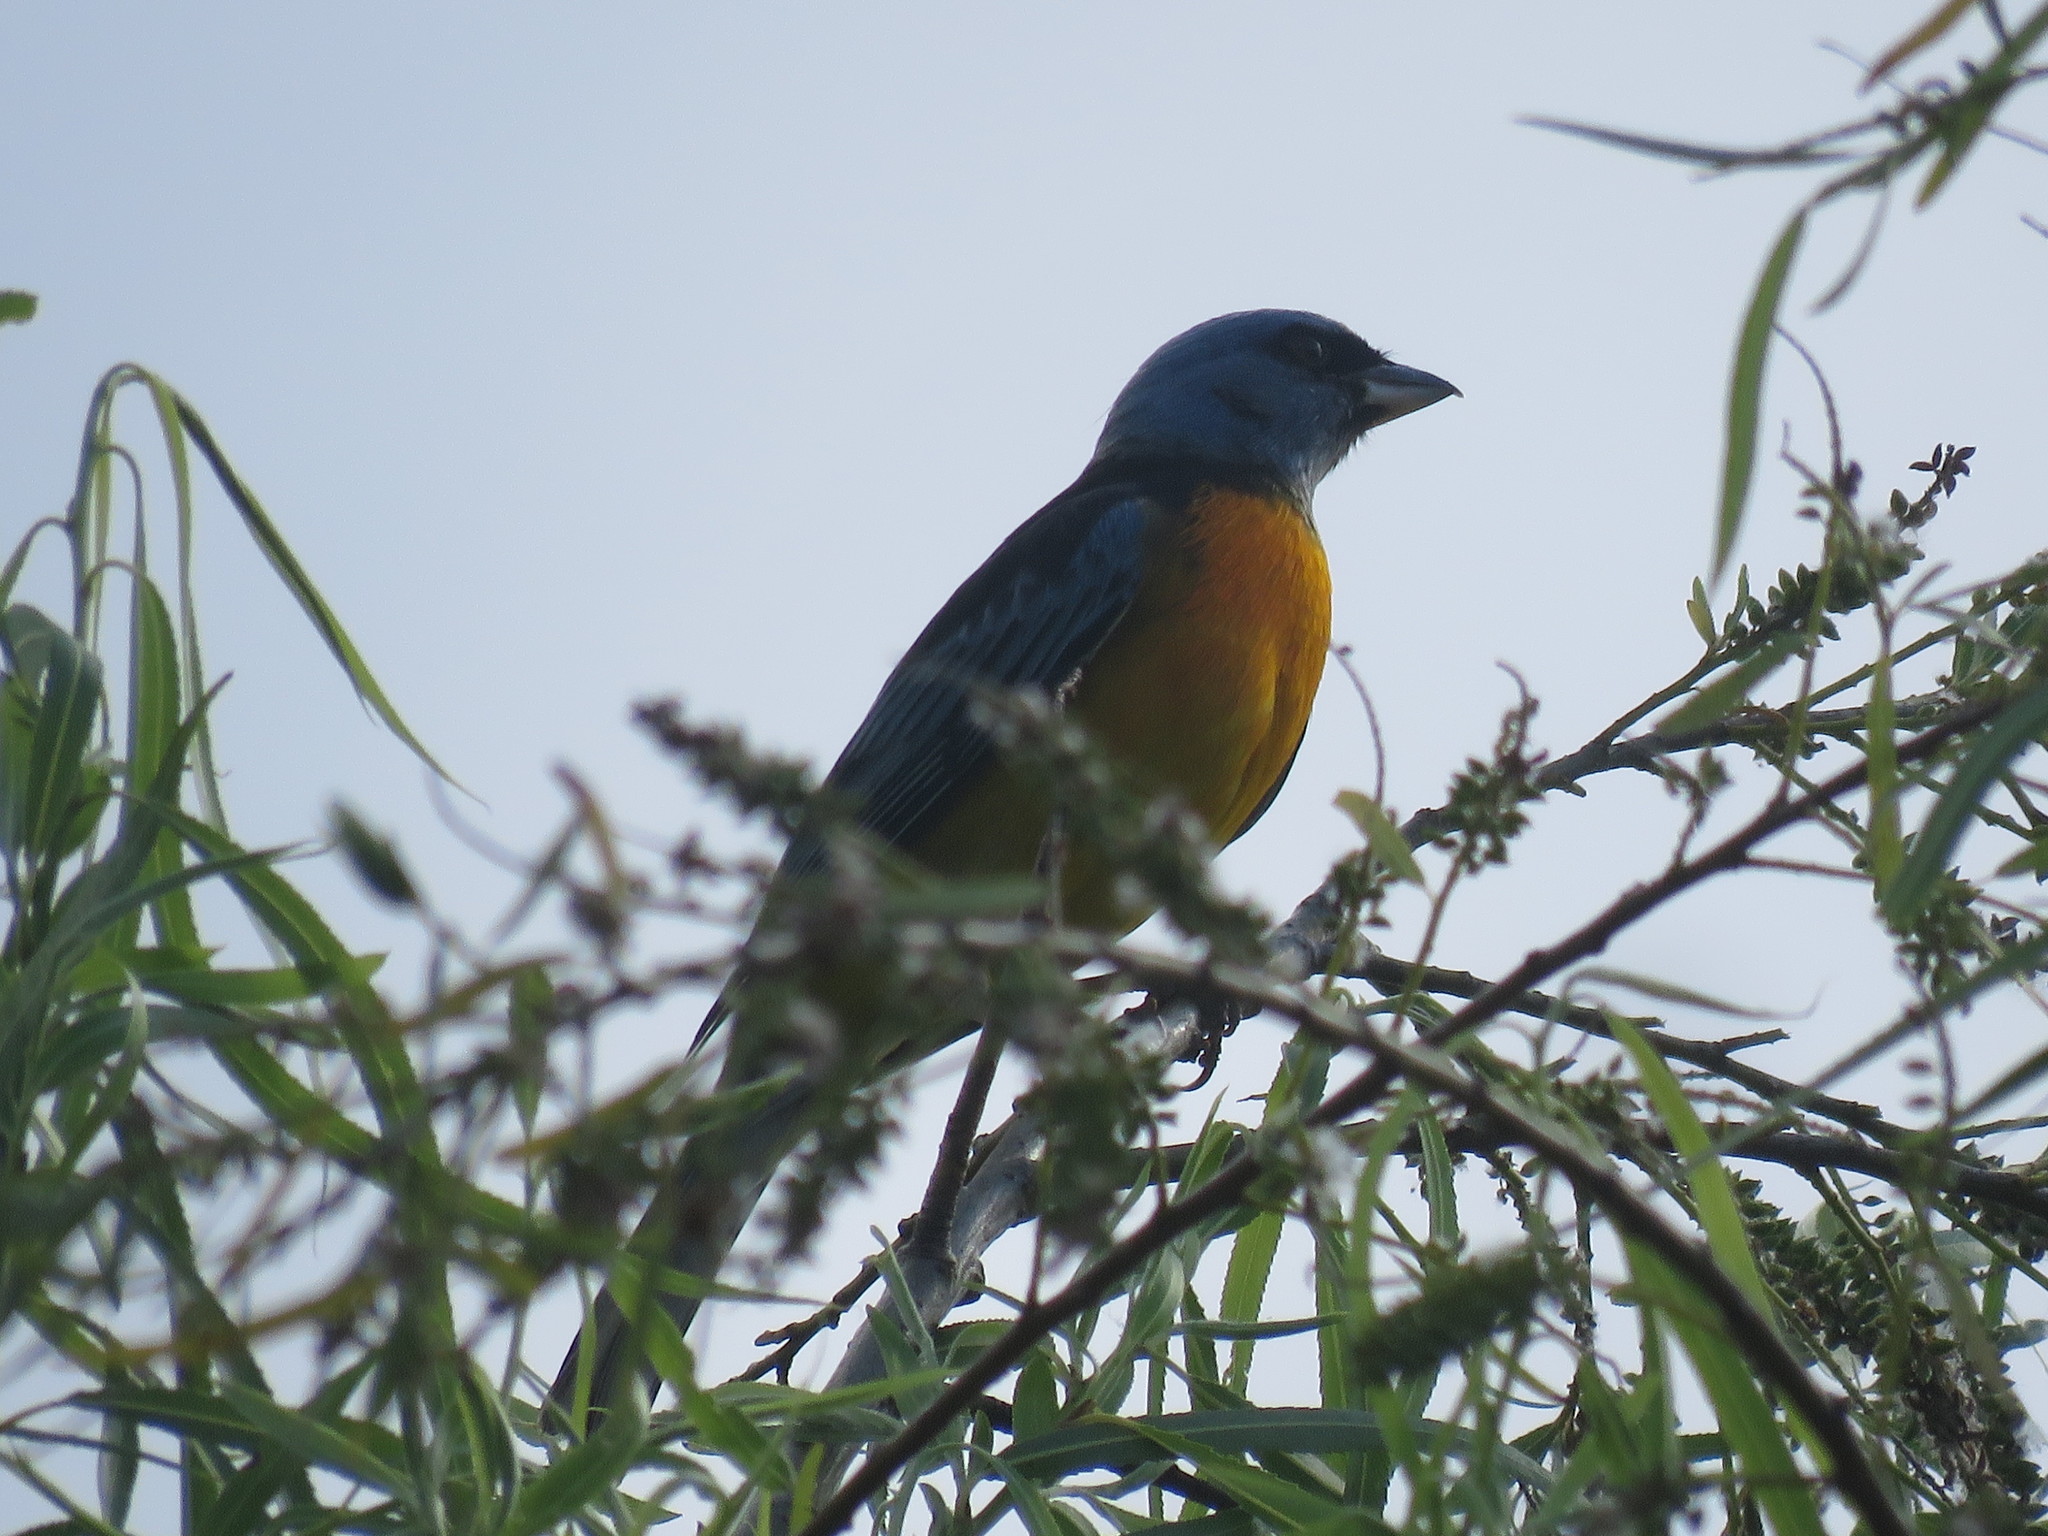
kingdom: Animalia
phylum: Chordata
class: Aves
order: Passeriformes
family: Thraupidae
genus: Rauenia
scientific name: Rauenia bonariensis
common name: Blue-and-yellow tanager
